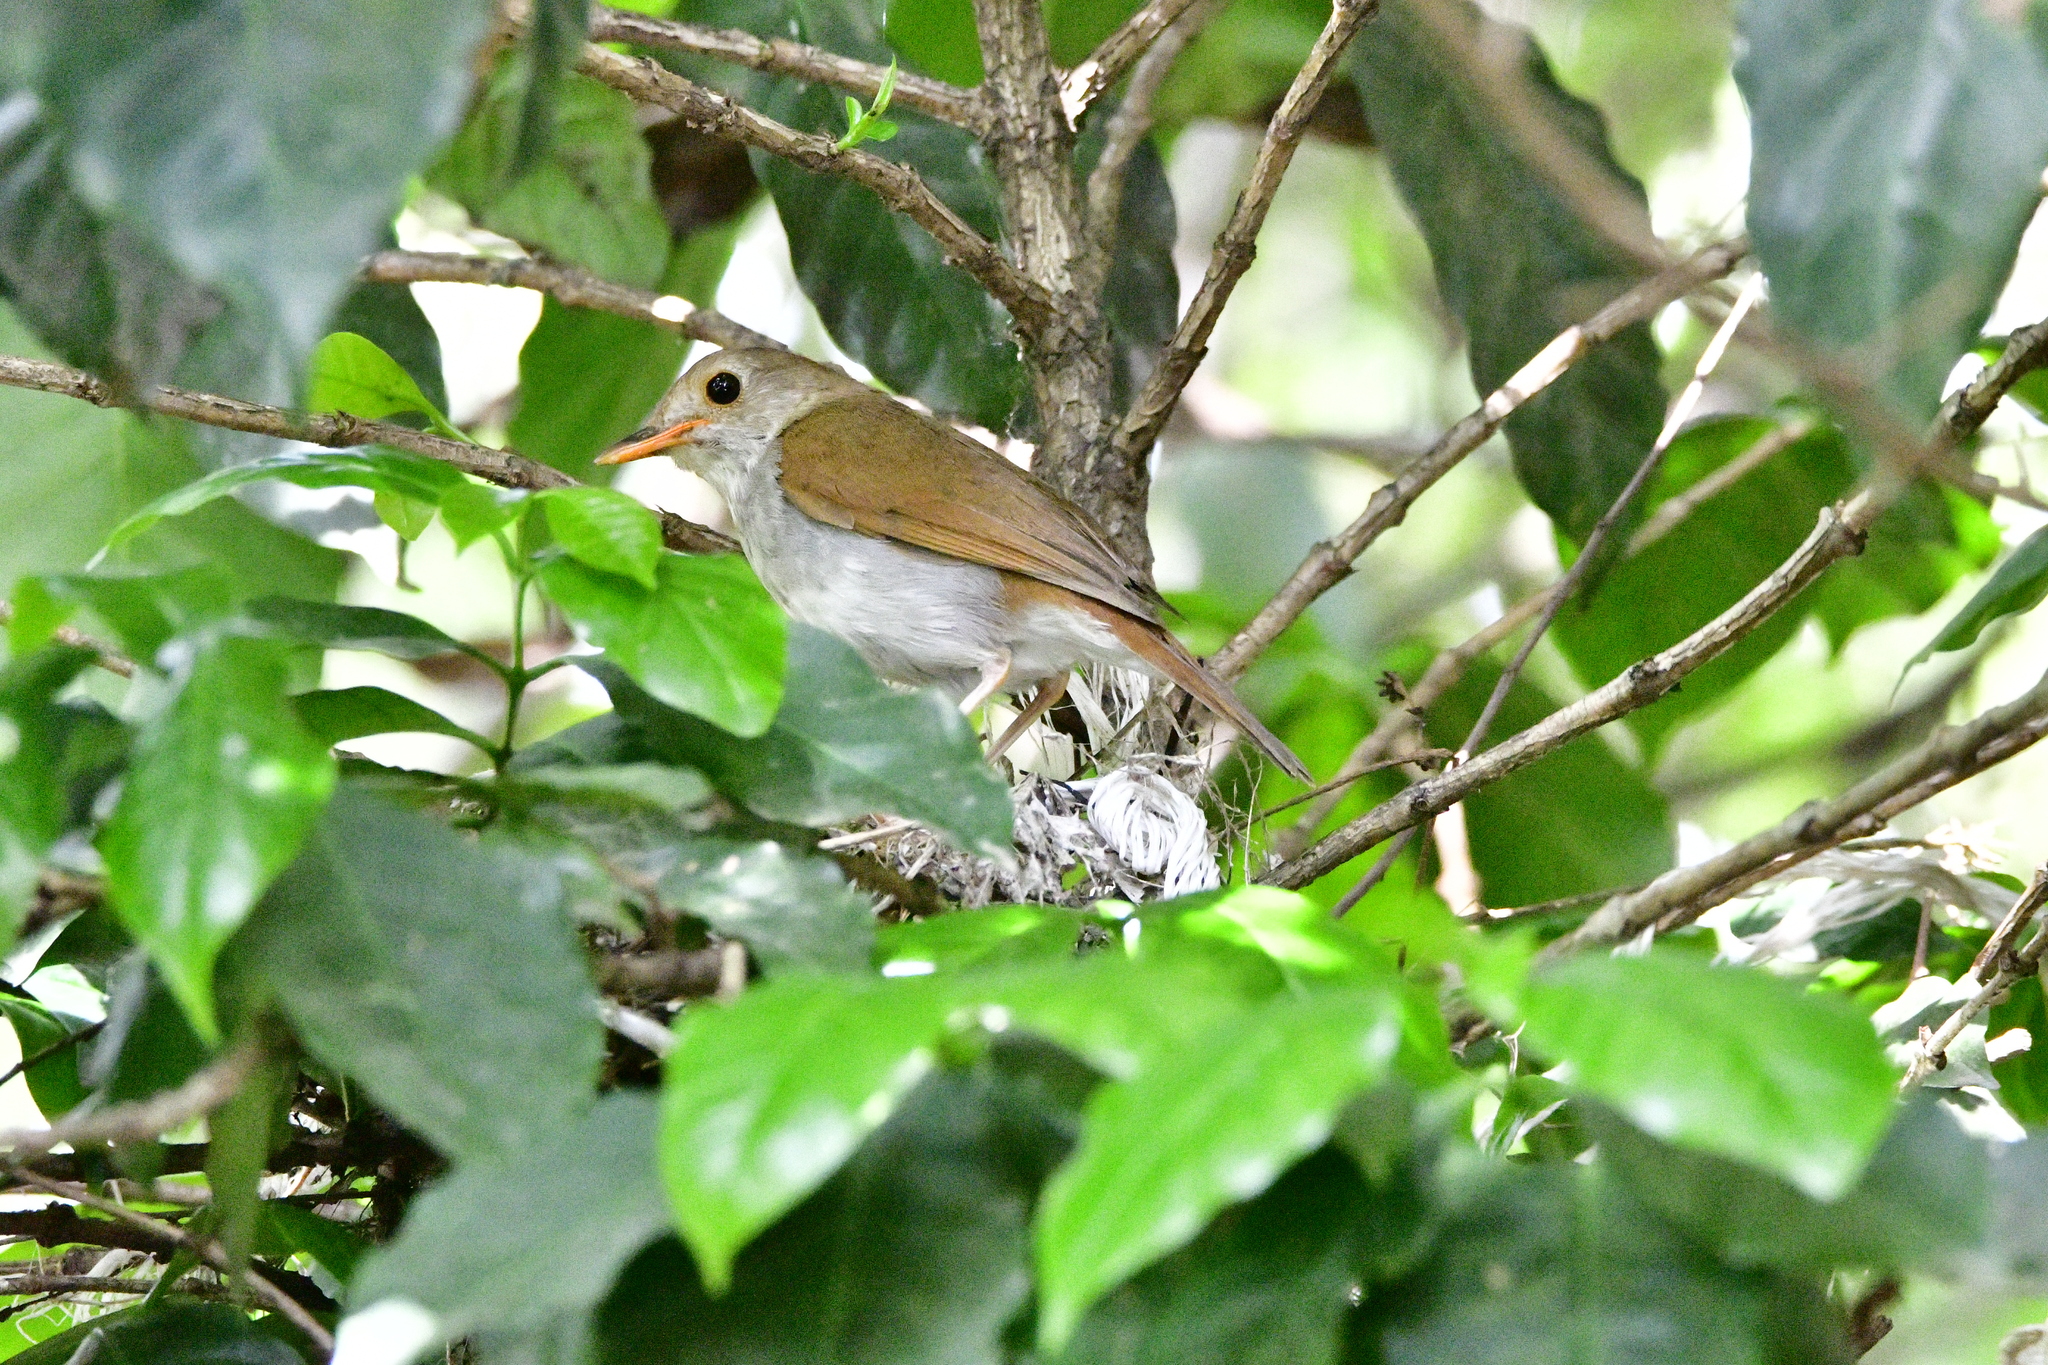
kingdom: Animalia
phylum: Chordata
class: Aves
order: Passeriformes
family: Turdidae
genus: Catharus
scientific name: Catharus aurantiirostris
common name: Orange-billed nightingale-thrush
